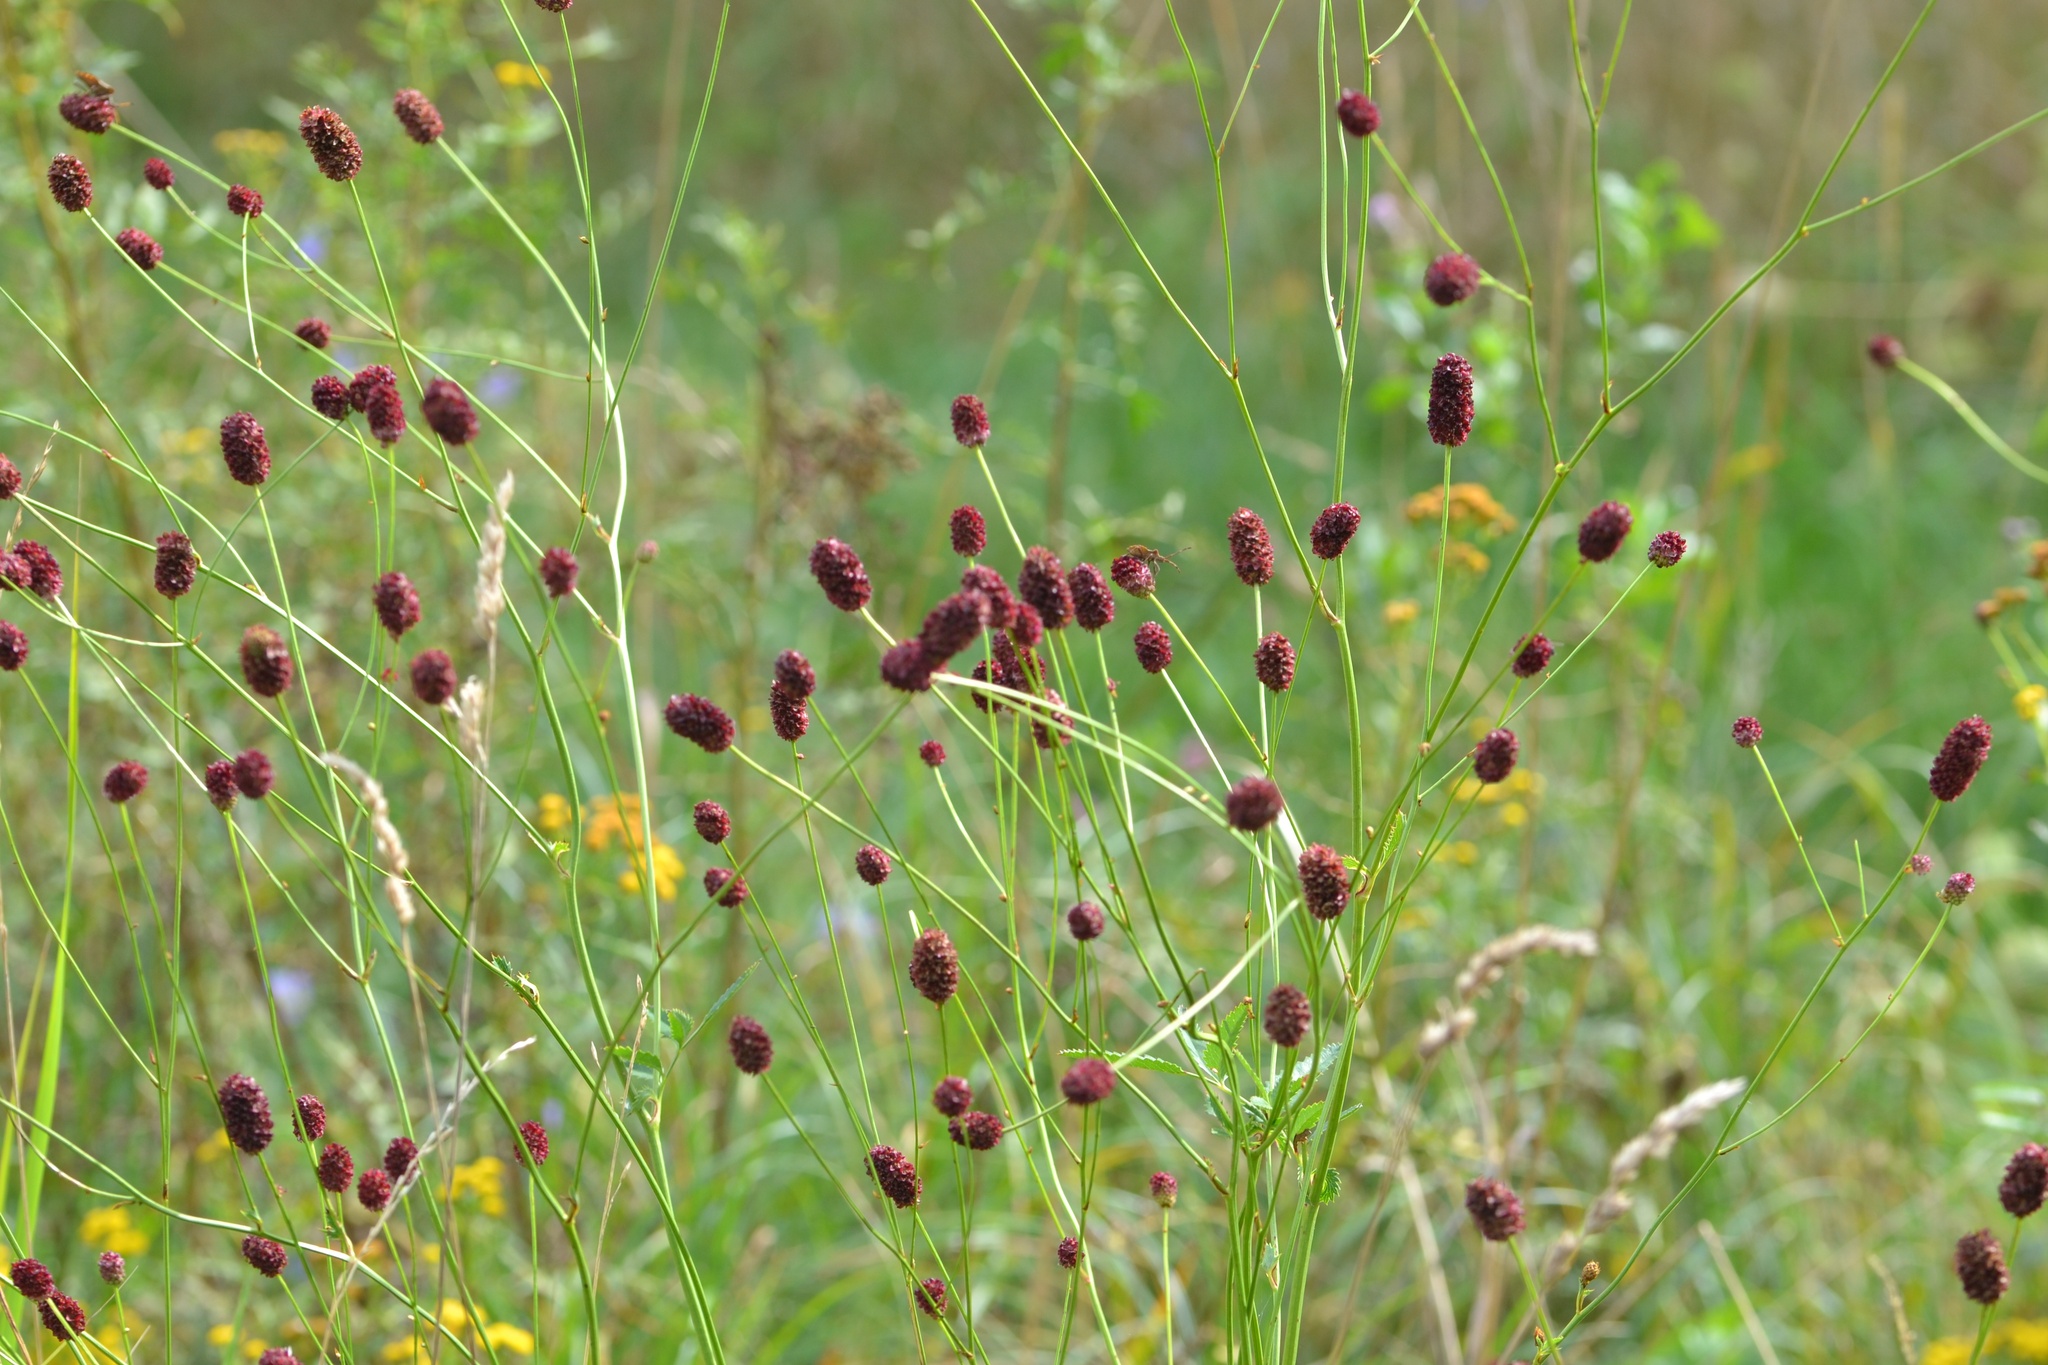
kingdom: Plantae
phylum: Tracheophyta
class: Magnoliopsida
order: Rosales
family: Rosaceae
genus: Sanguisorba
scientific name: Sanguisorba officinalis
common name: Great burnet
